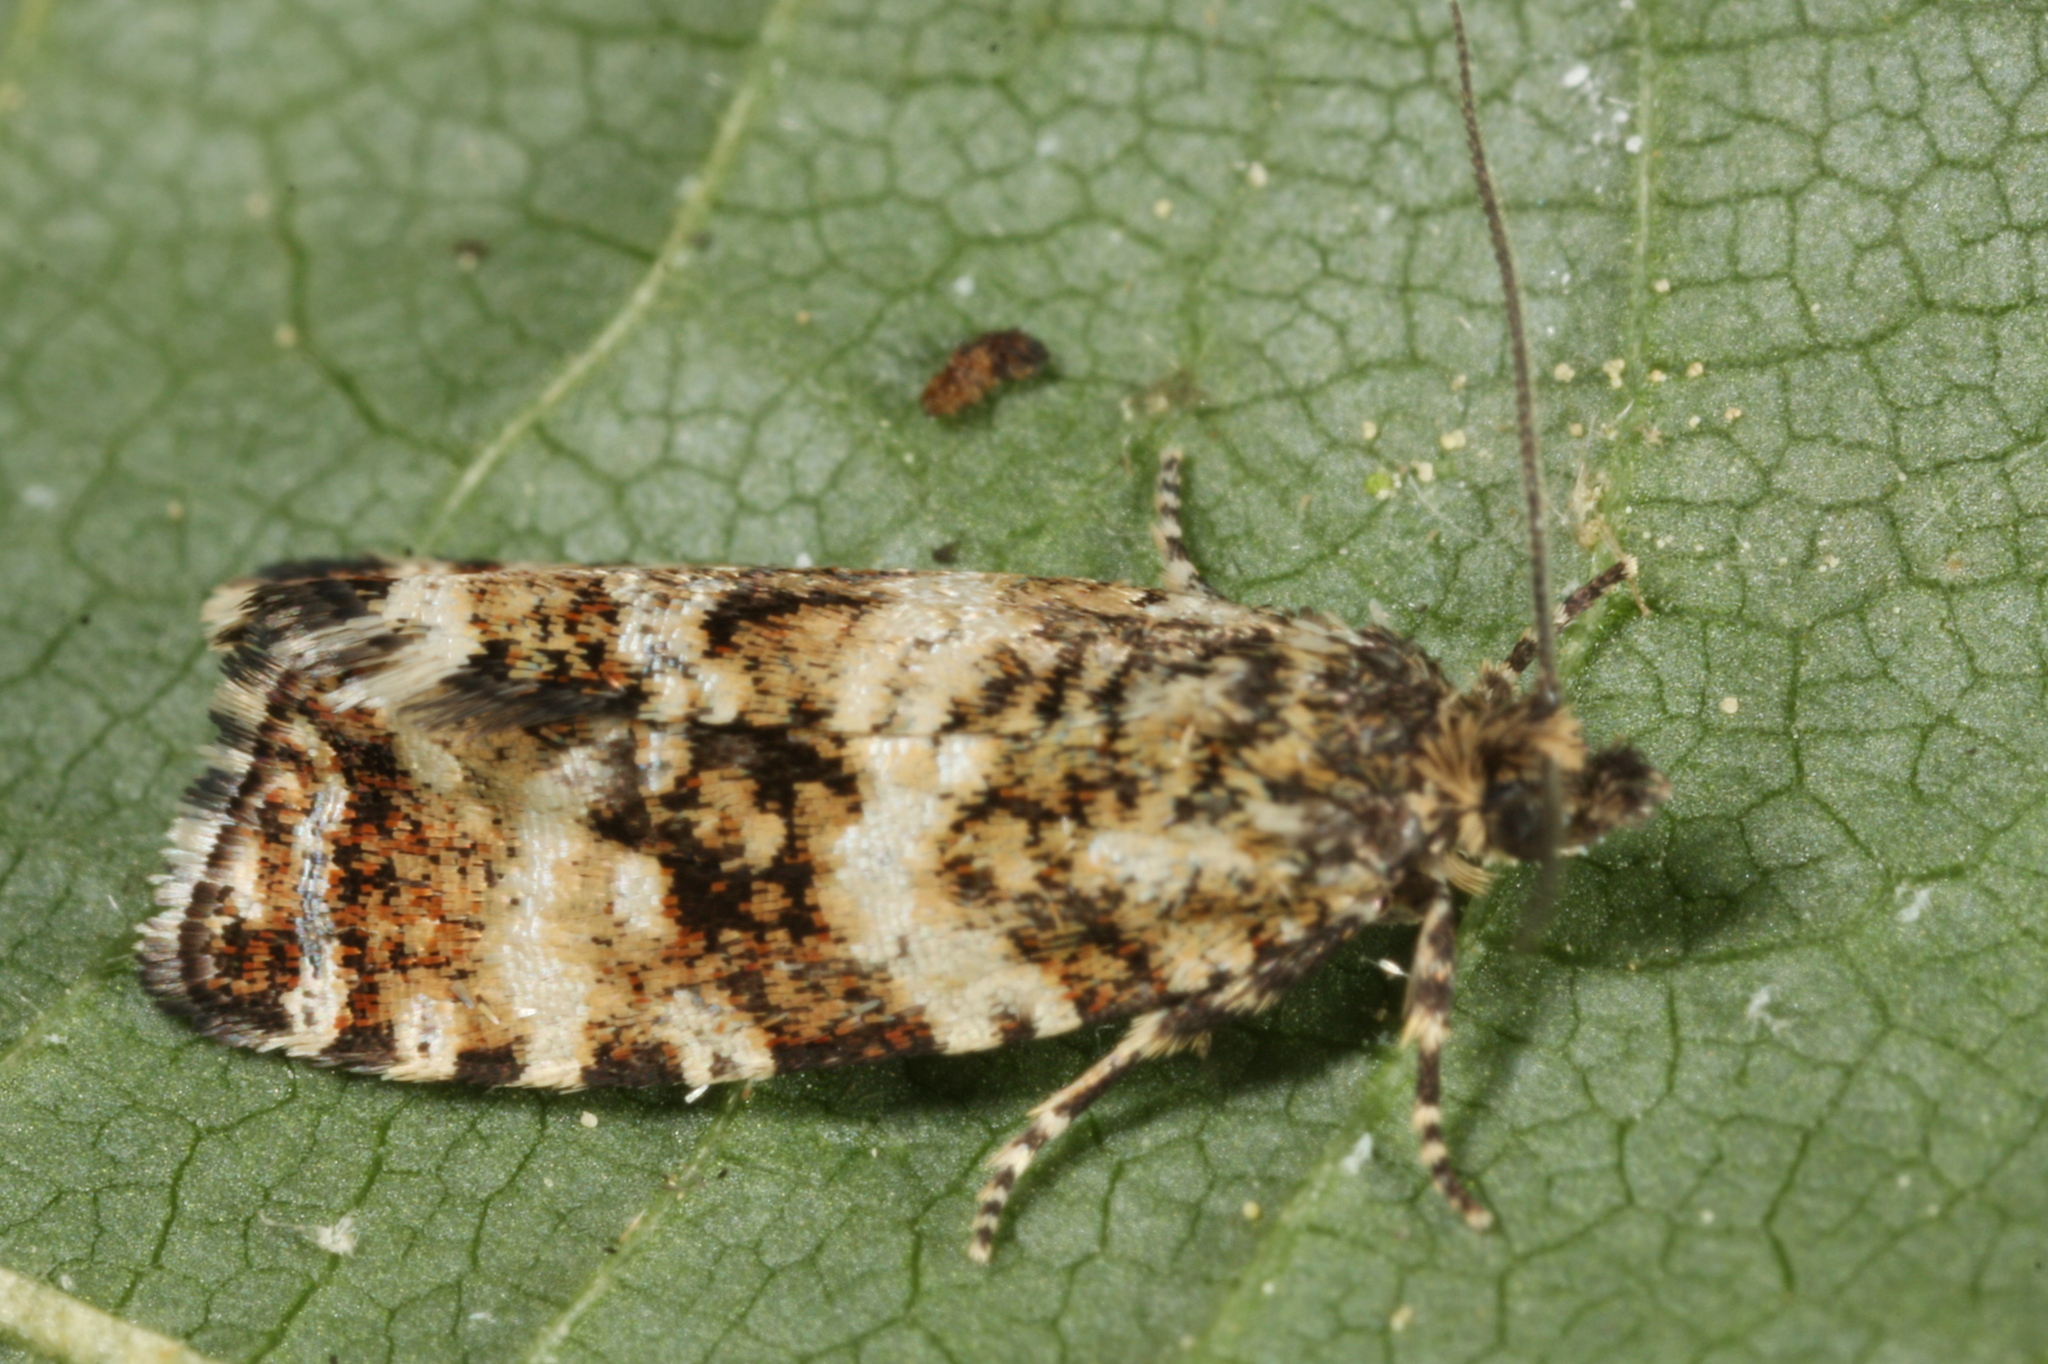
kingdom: Animalia
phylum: Arthropoda
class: Insecta
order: Lepidoptera
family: Tortricidae
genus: Olethreutes
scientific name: Olethreutes palustrana
